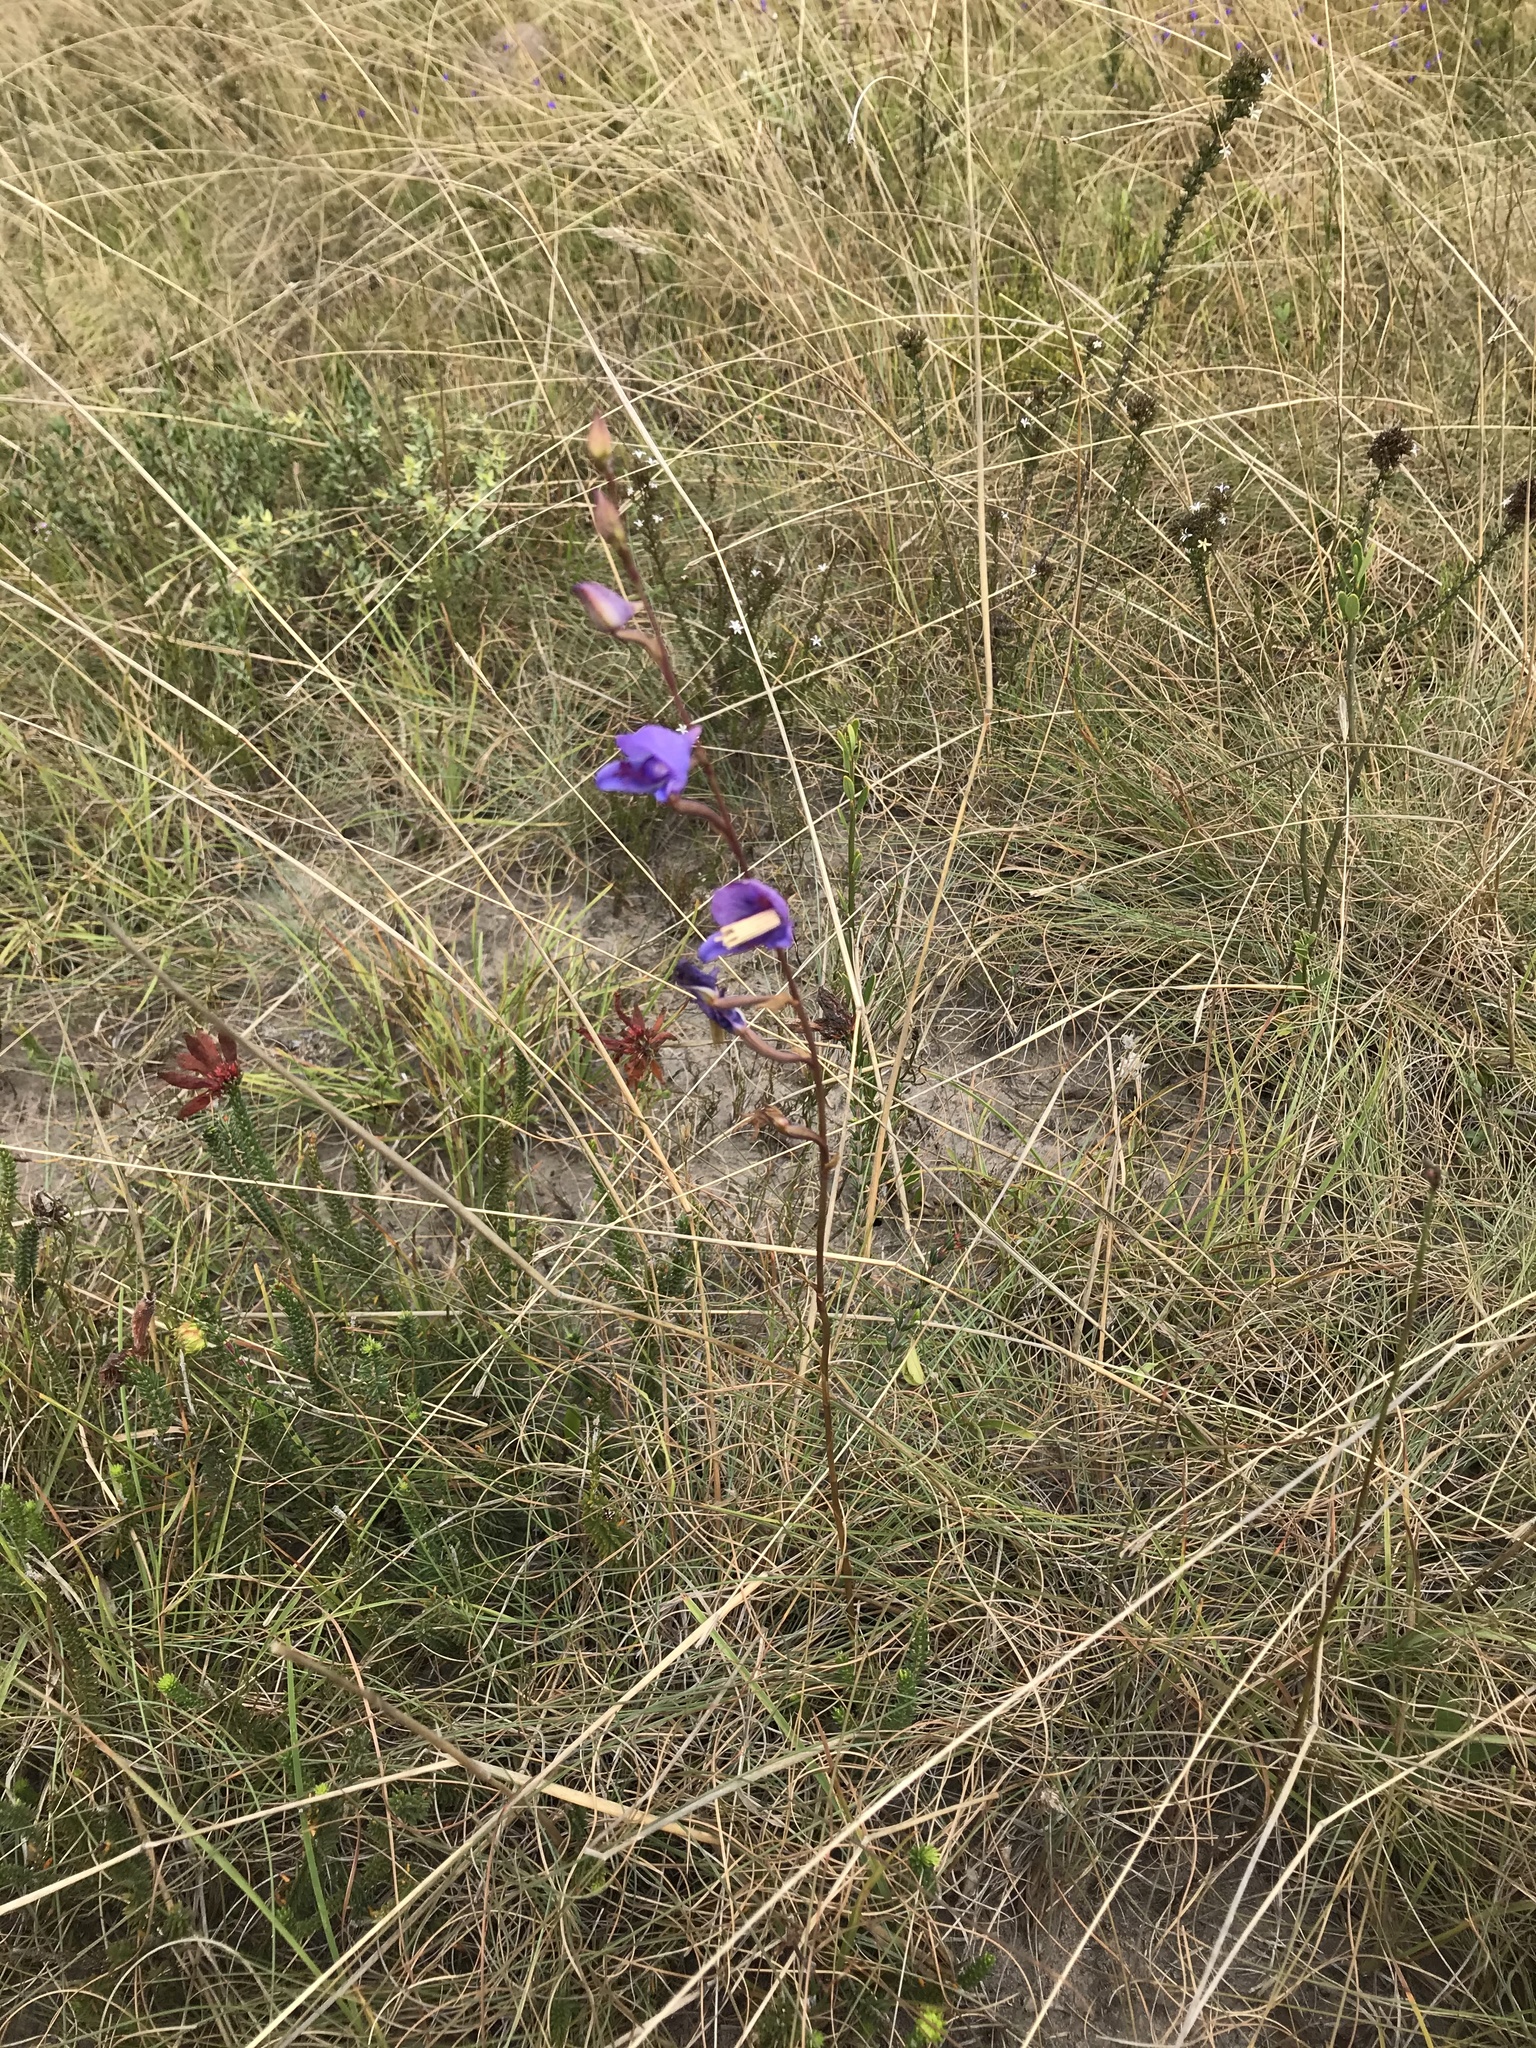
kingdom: Plantae
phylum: Tracheophyta
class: Liliopsida
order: Asparagales
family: Orchidaceae
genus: Disa
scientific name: Disa hians
